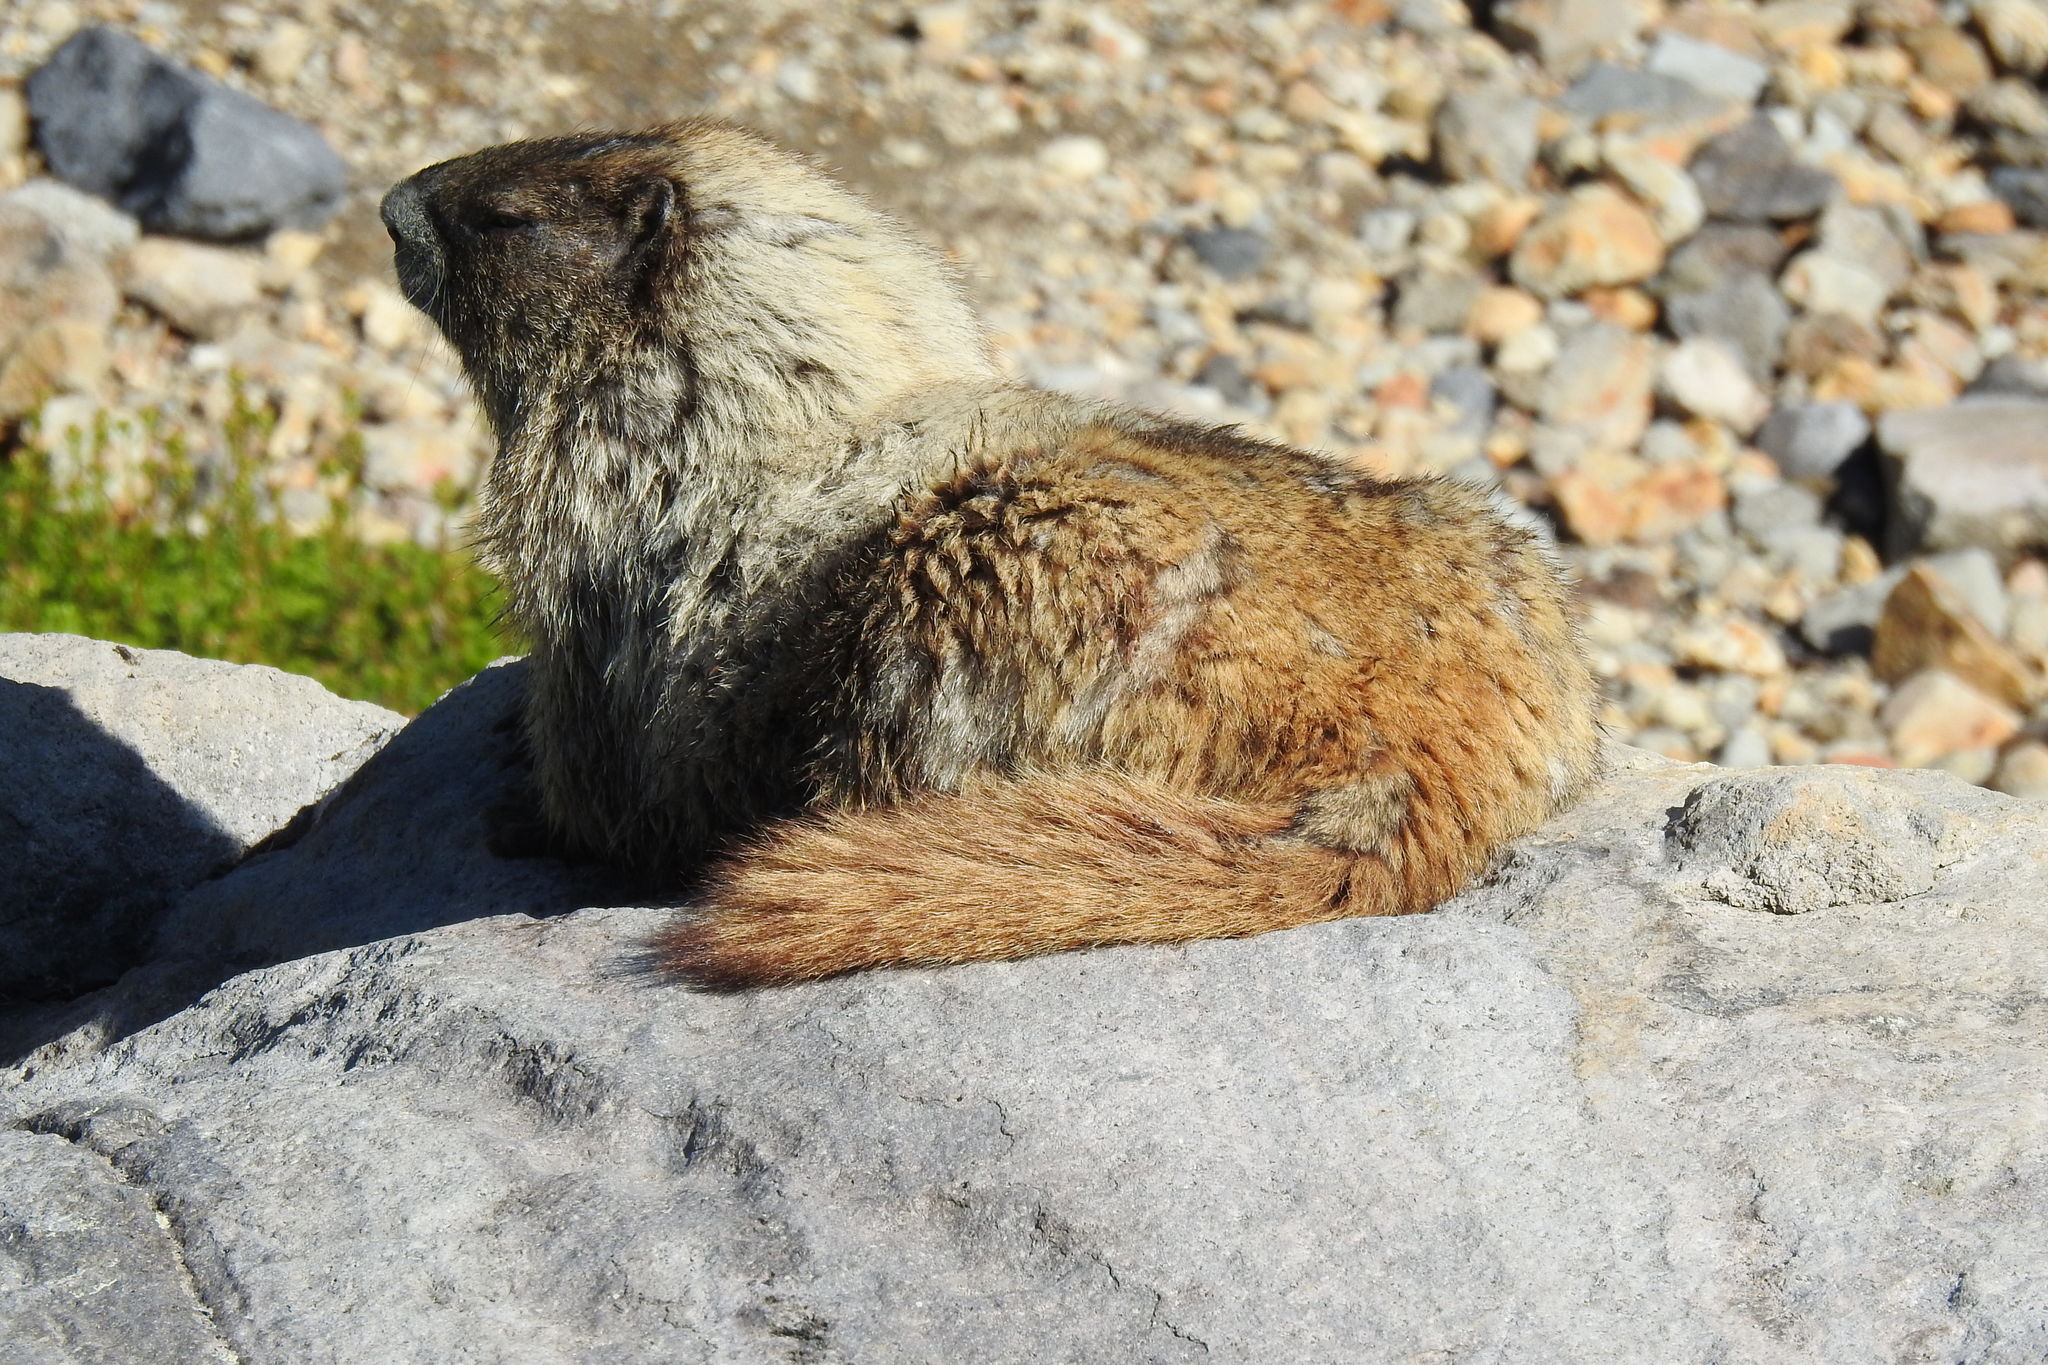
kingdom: Animalia
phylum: Chordata
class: Mammalia
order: Rodentia
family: Sciuridae
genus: Marmota
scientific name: Marmota caligata
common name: Hoary marmot
